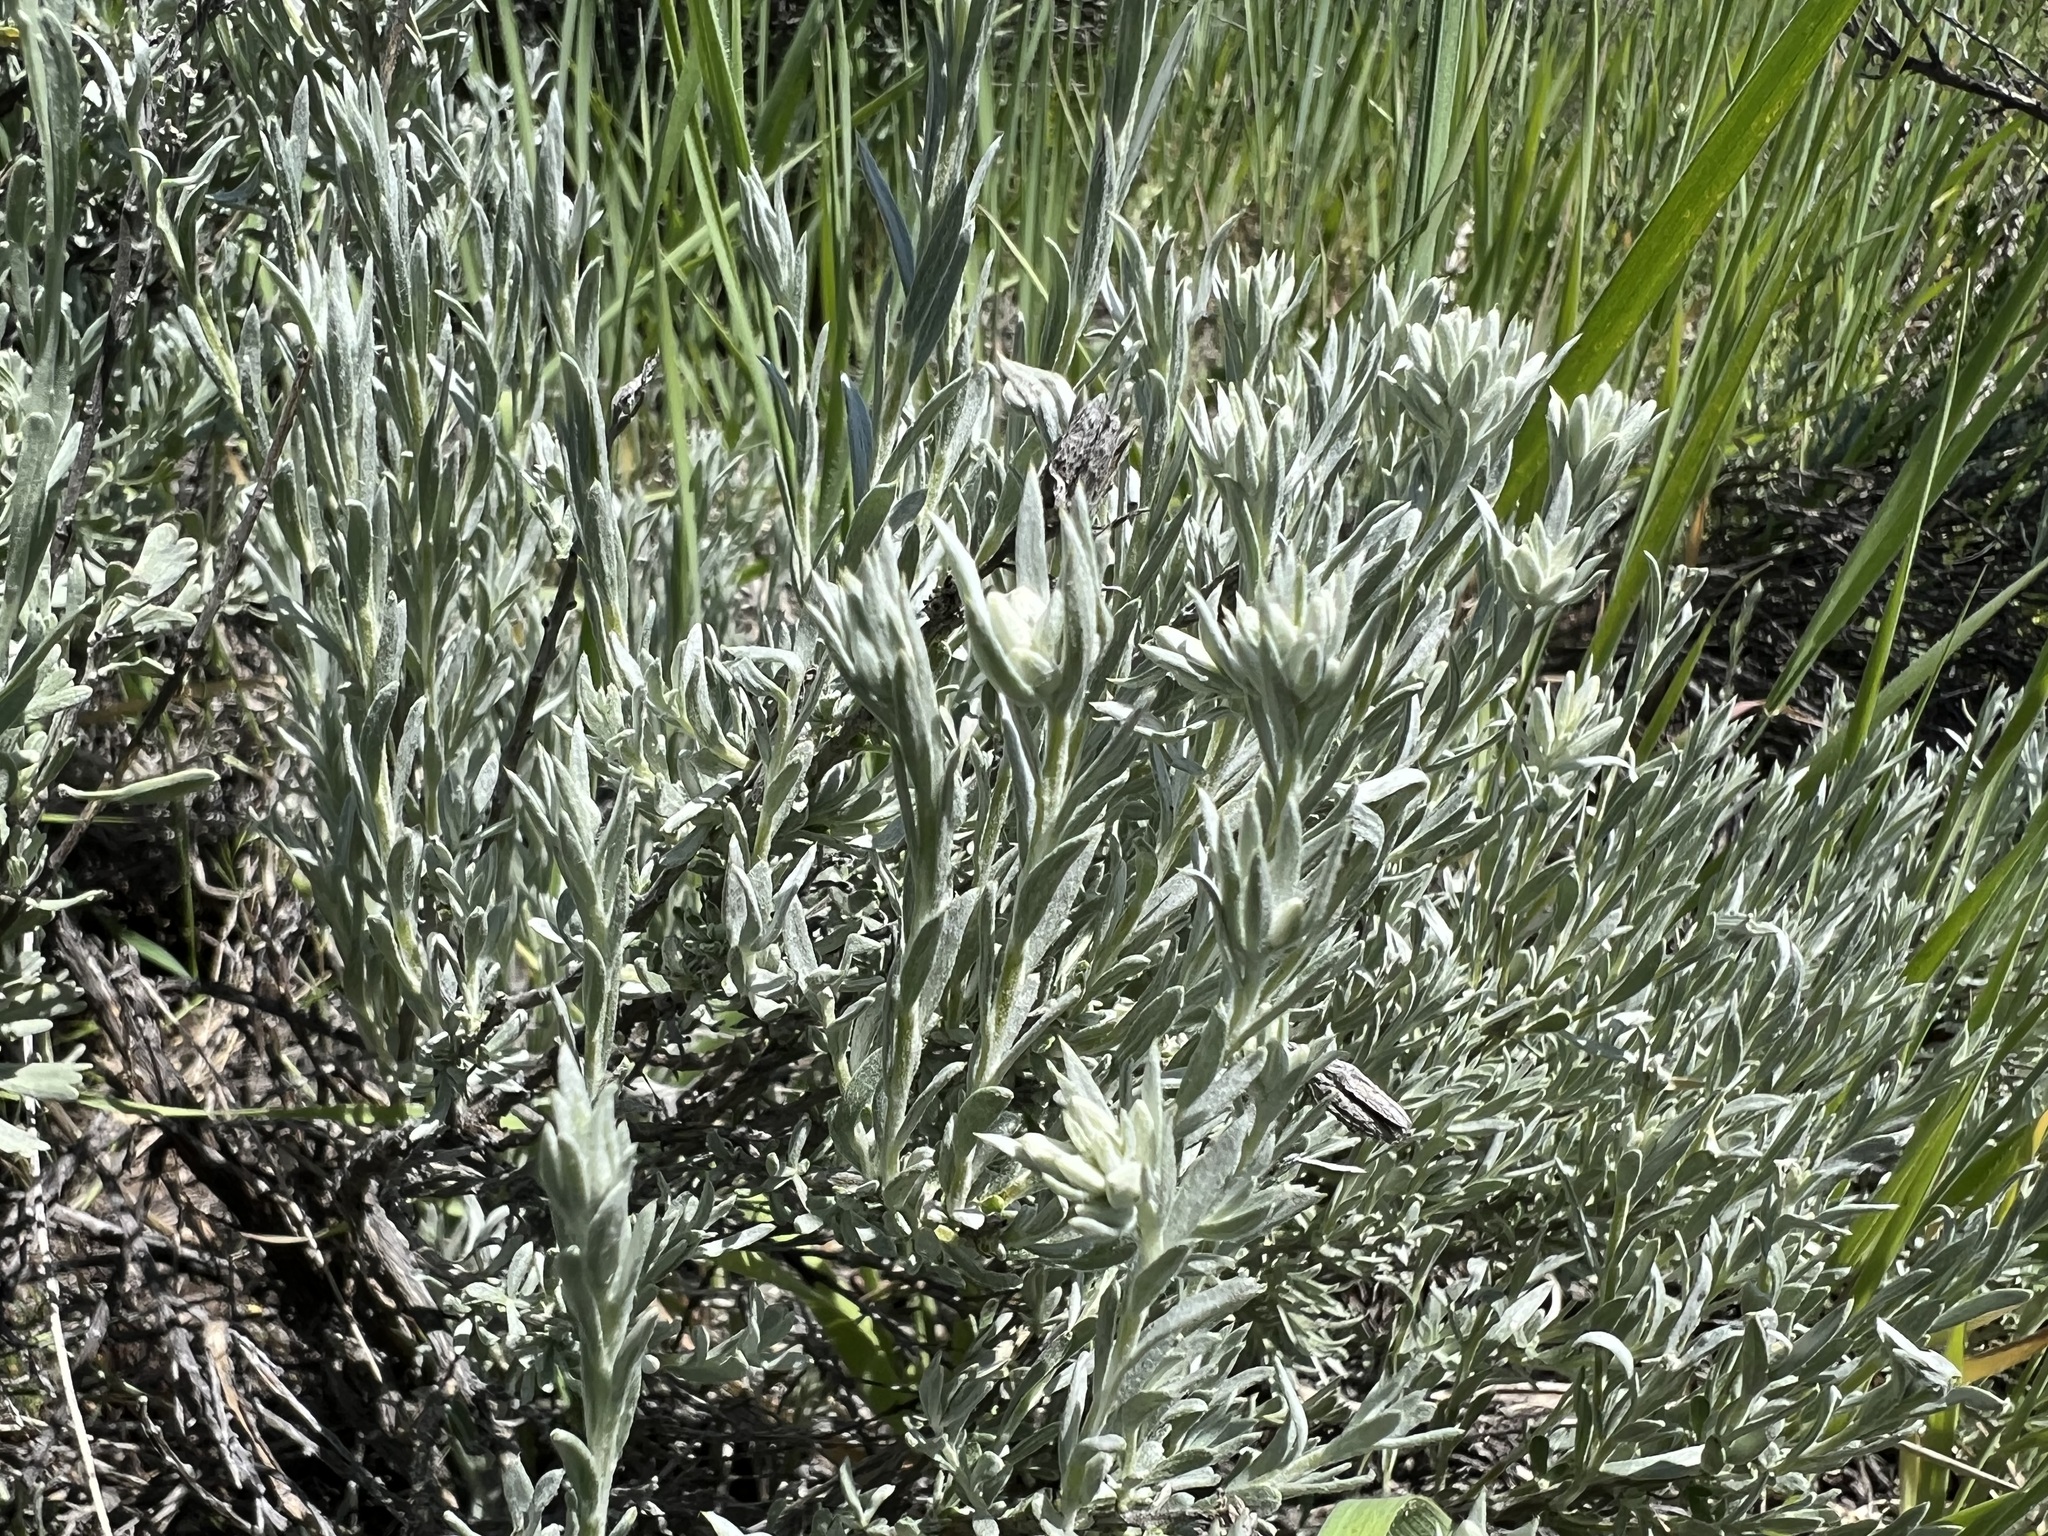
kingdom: Plantae
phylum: Tracheophyta
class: Magnoliopsida
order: Asterales
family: Asteraceae
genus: Tetradymia
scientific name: Tetradymia canescens
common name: Spineless horsebrush
